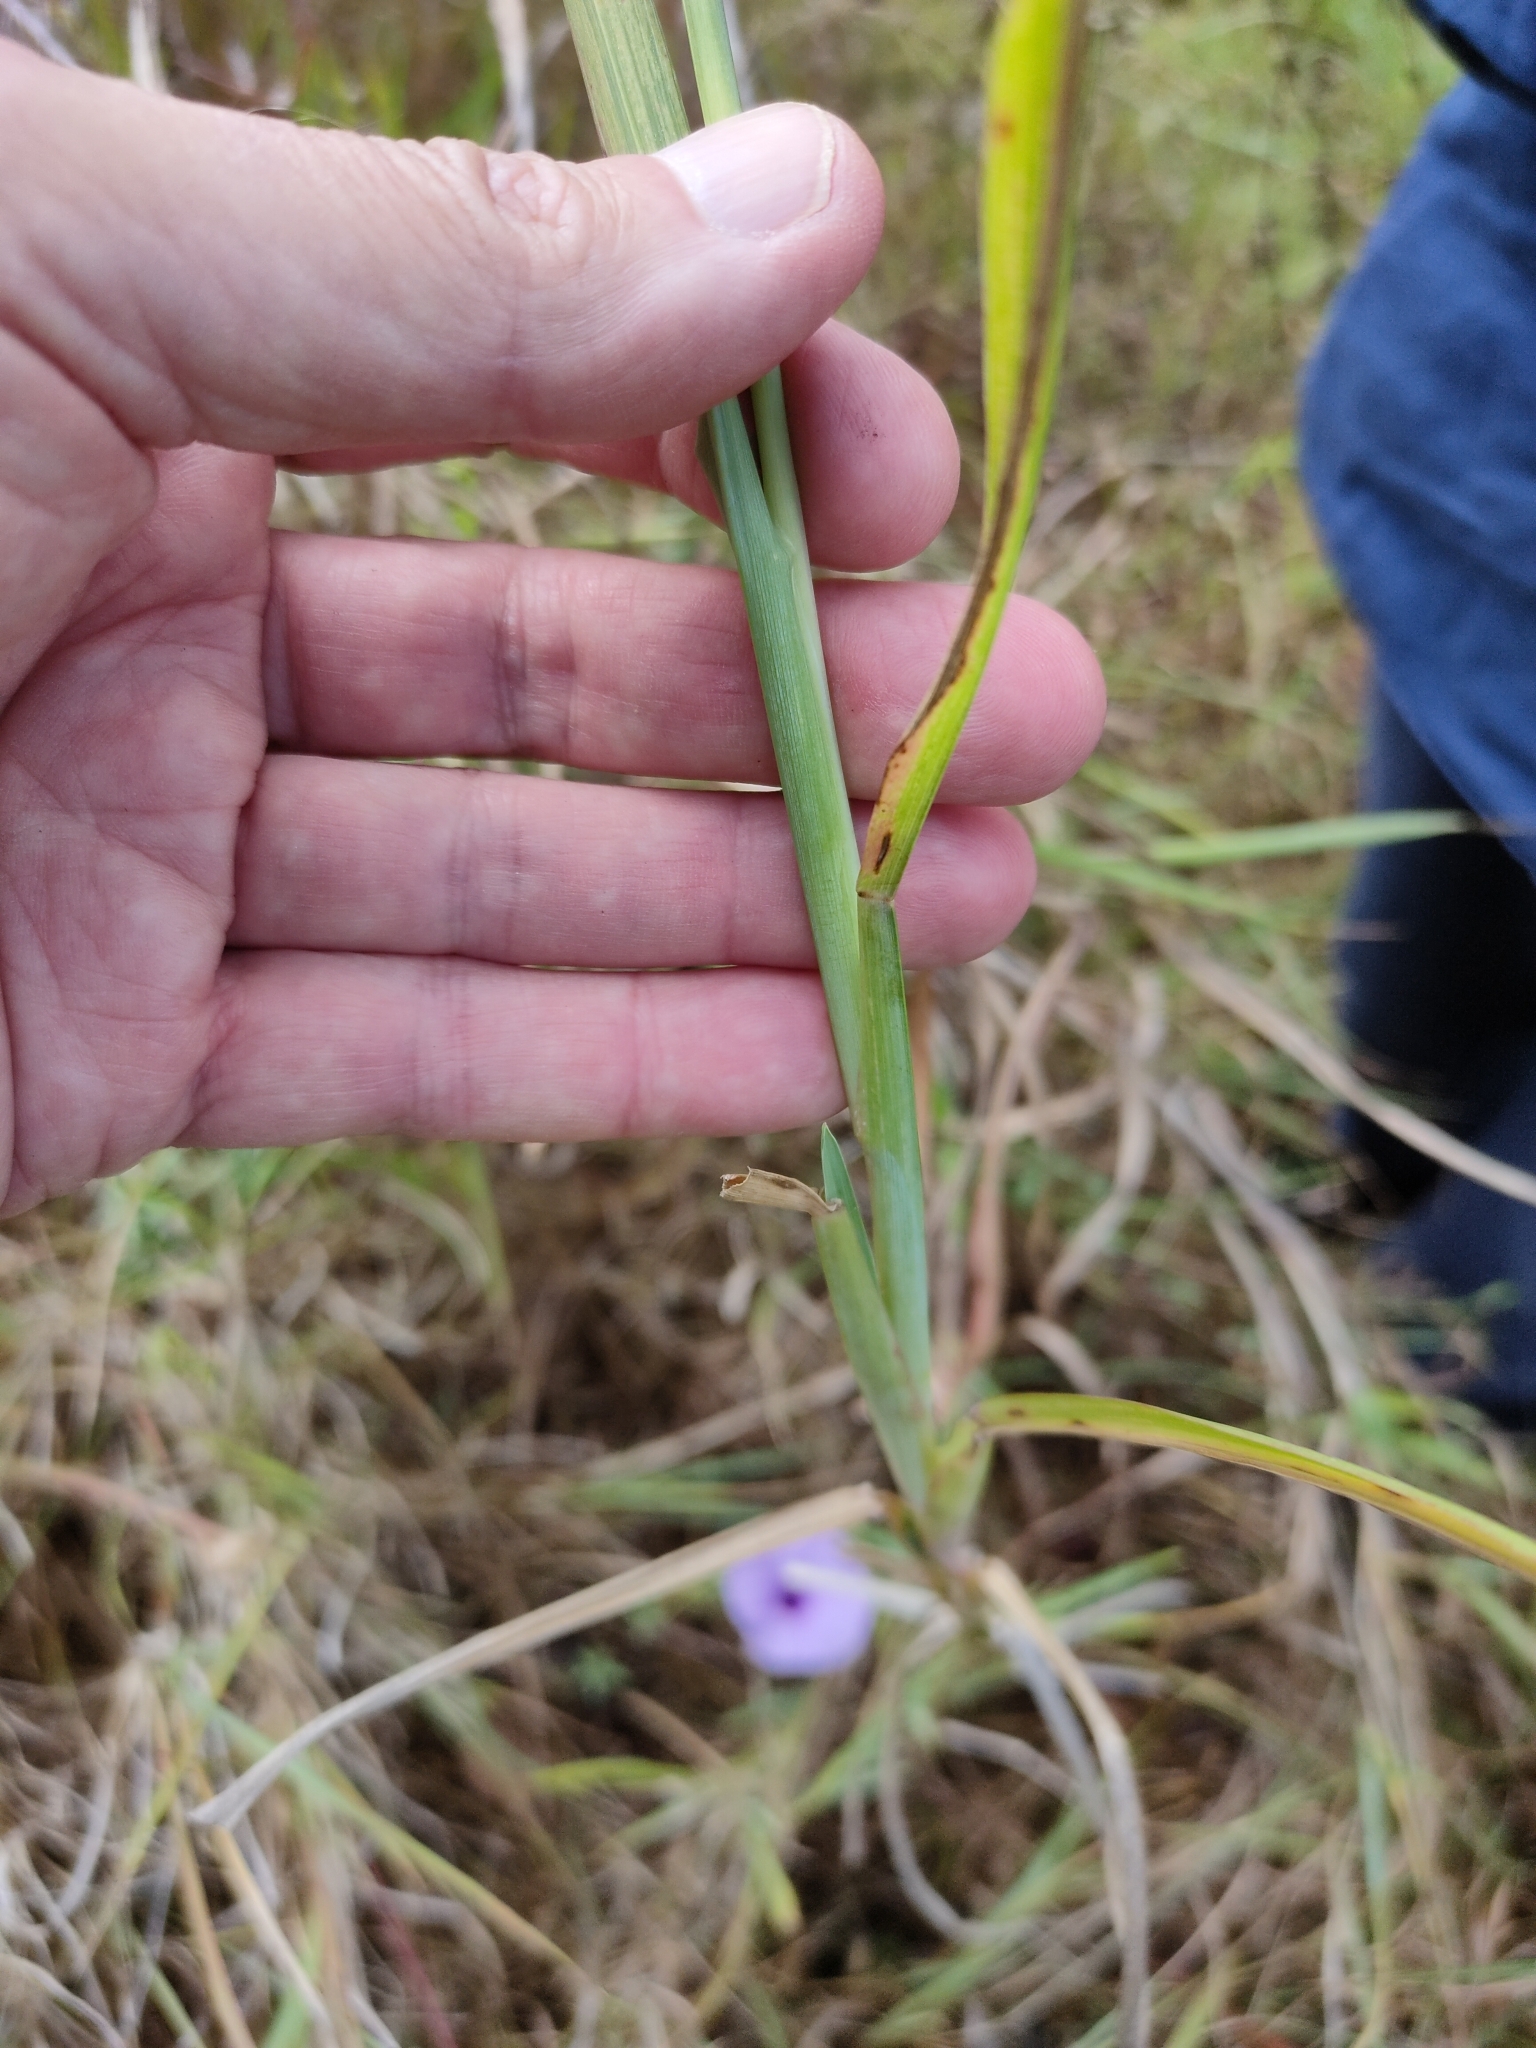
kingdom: Plantae
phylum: Tracheophyta
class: Liliopsida
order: Poales
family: Poaceae
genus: Setaria
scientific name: Setaria sphacelata
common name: African bristlegrass
